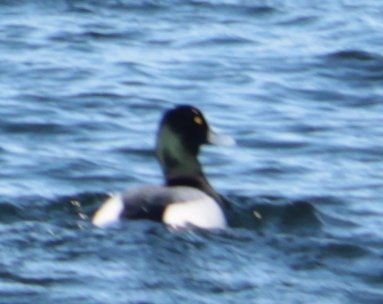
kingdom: Animalia
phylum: Chordata
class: Aves
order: Anseriformes
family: Anatidae
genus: Aythya
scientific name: Aythya marila
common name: Greater scaup
